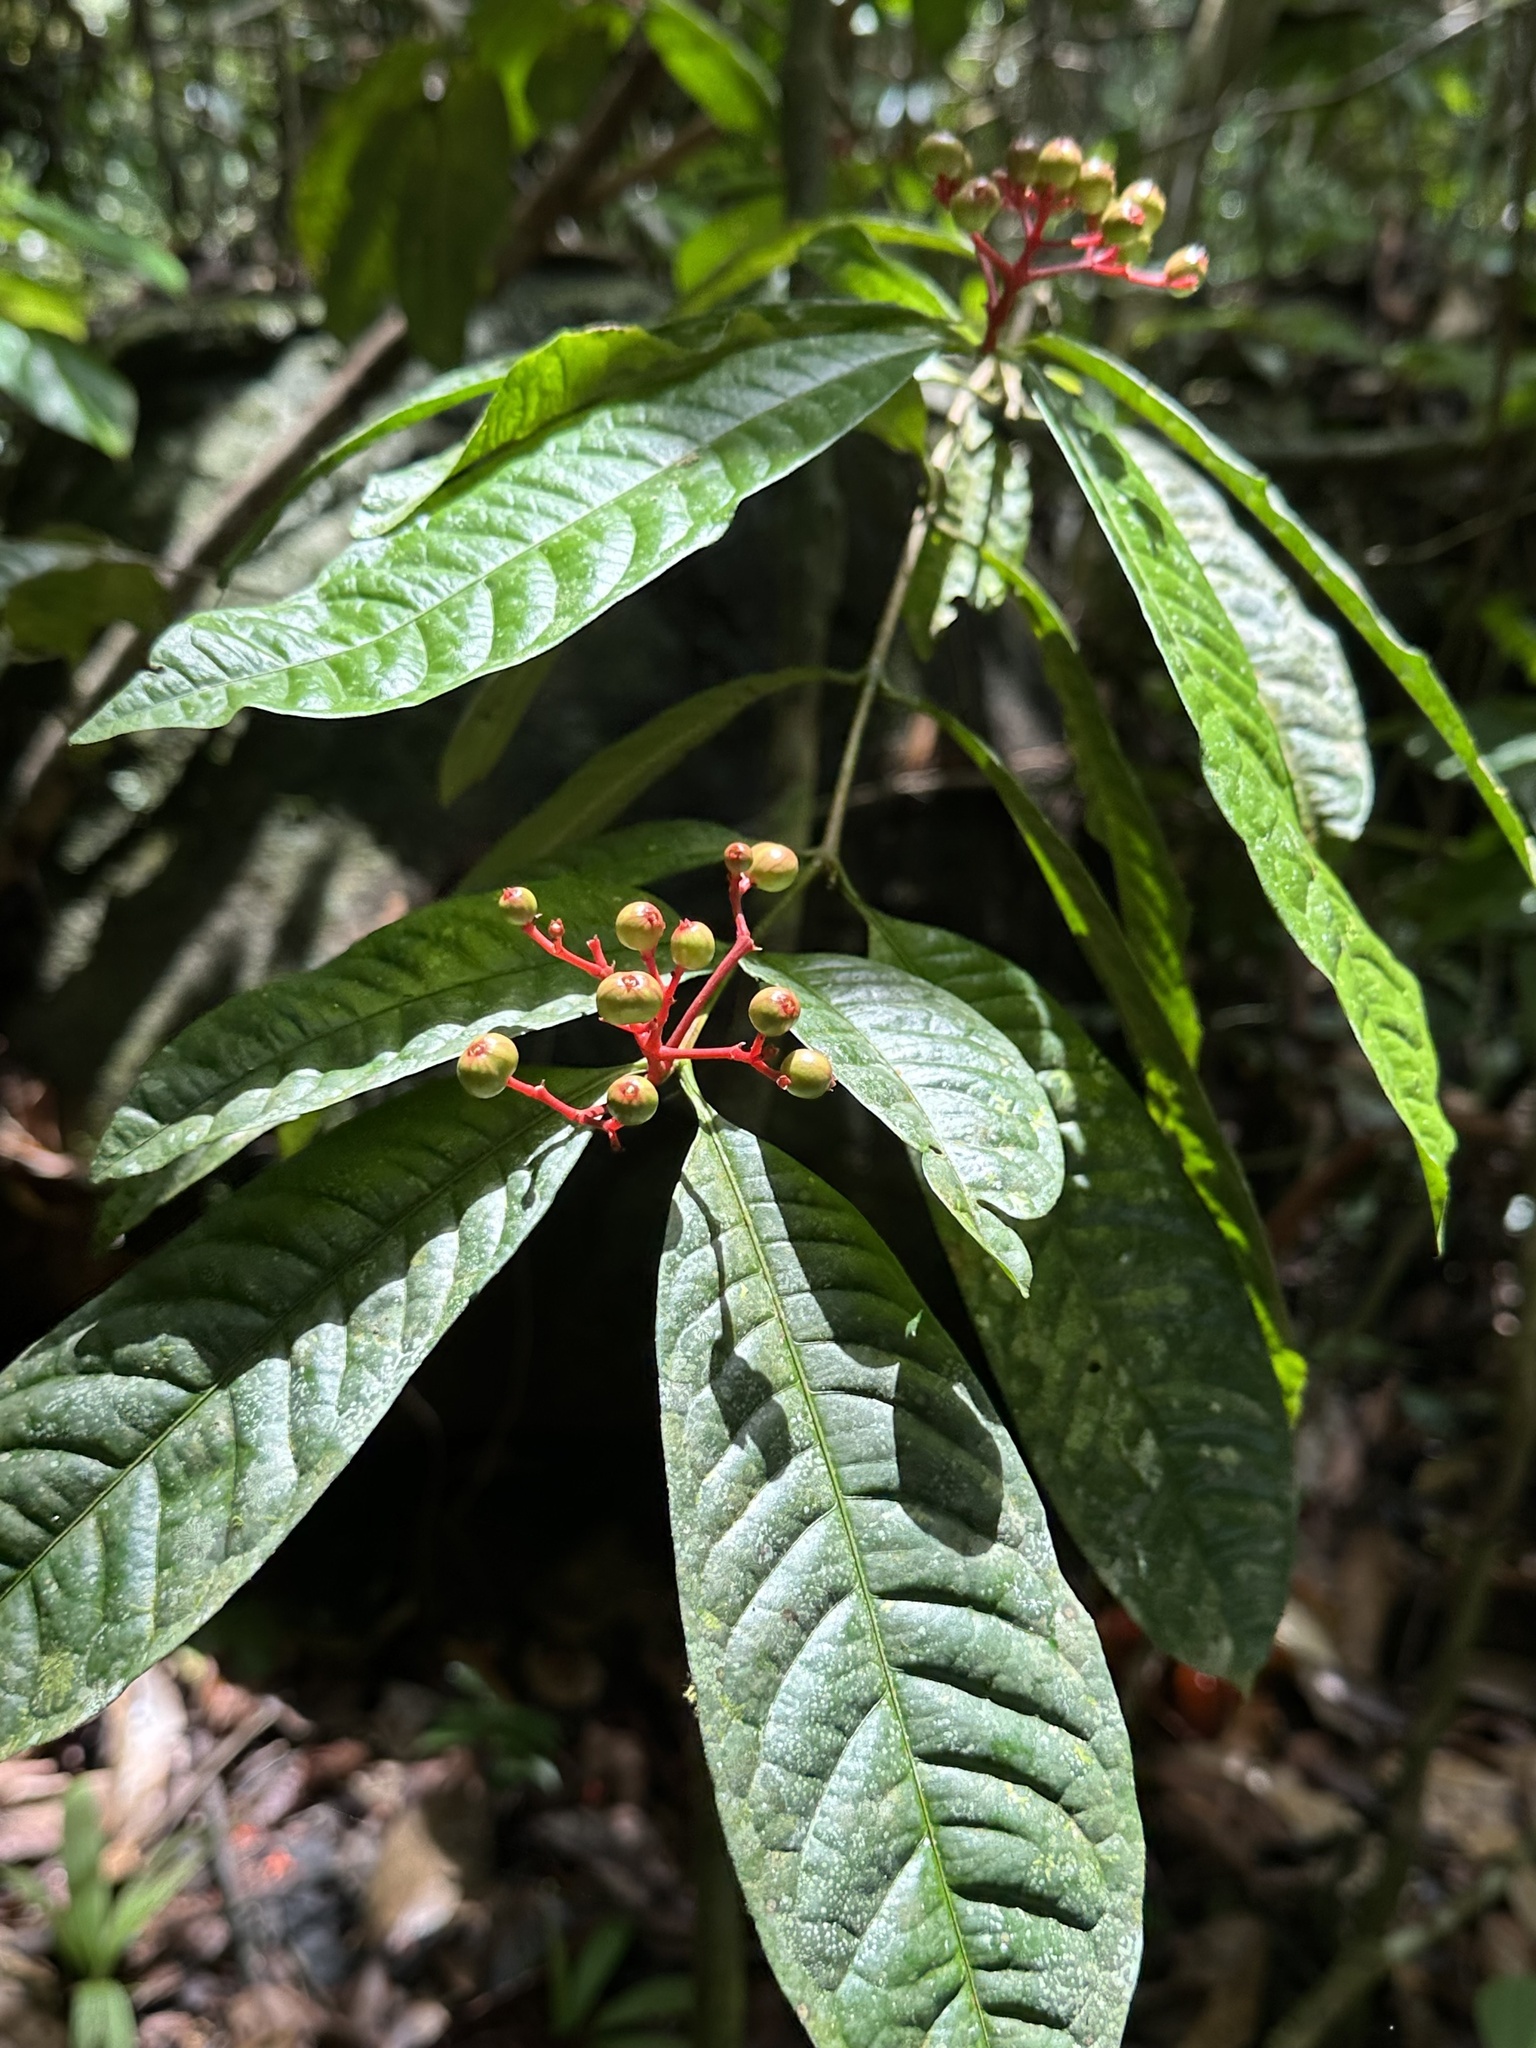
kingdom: Plantae
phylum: Tracheophyta
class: Magnoliopsida
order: Gentianales
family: Rubiaceae
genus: Ixora
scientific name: Ixora congesta
